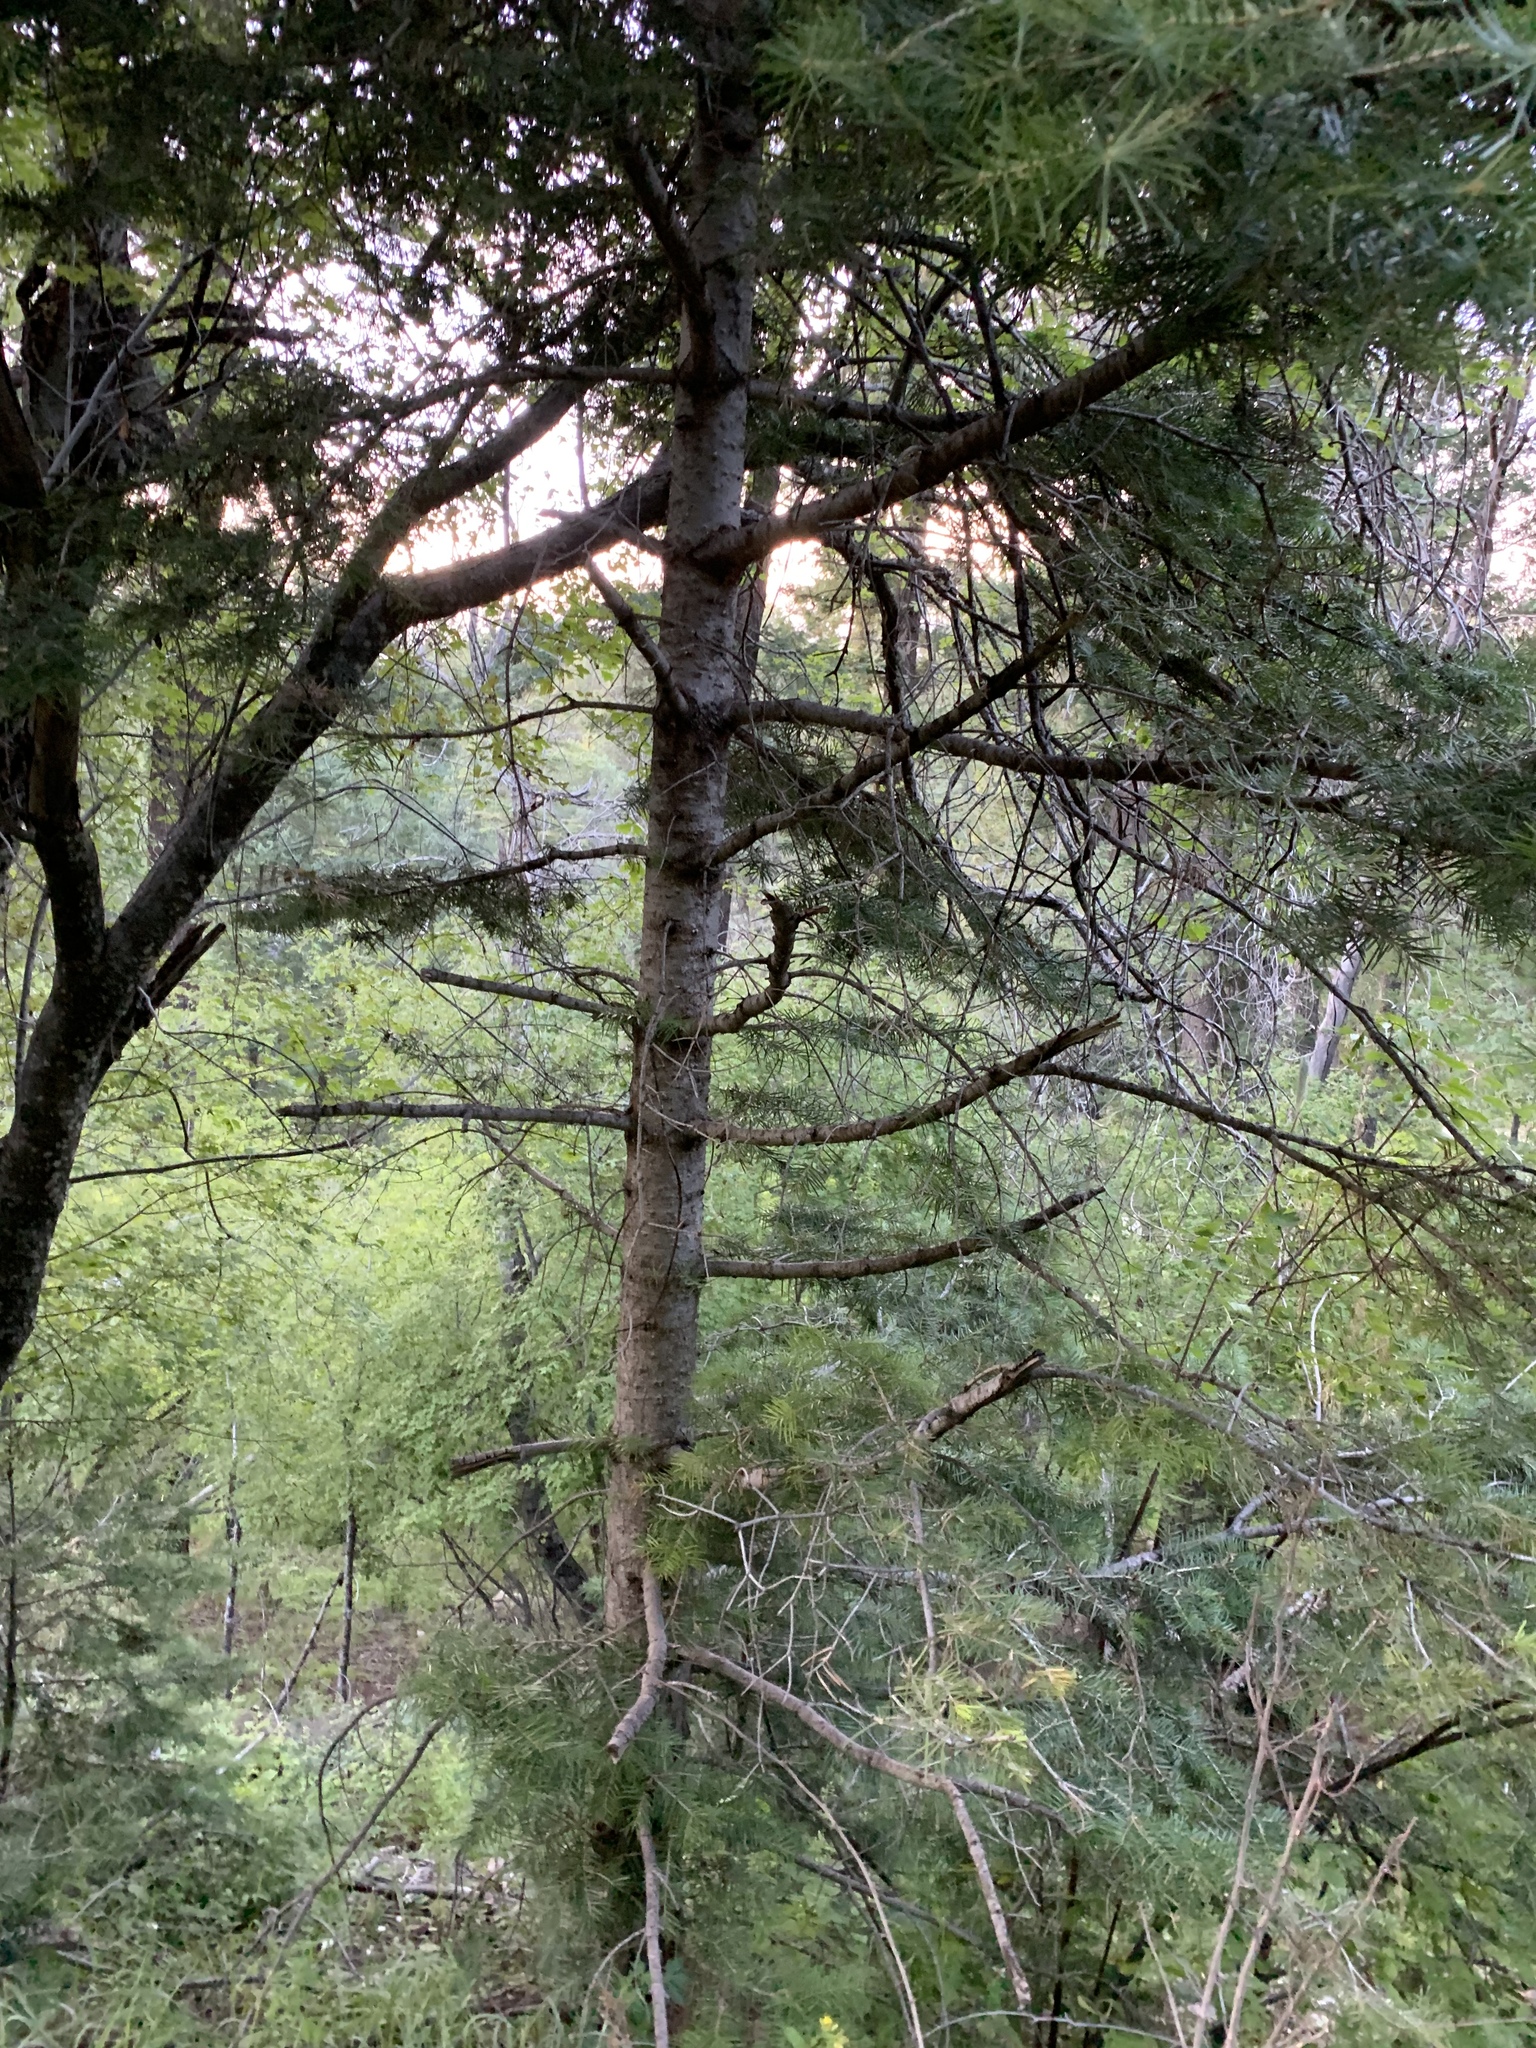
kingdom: Plantae
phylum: Tracheophyta
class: Pinopsida
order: Pinales
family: Pinaceae
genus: Abies
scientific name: Abies concolor
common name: Colorado fir
